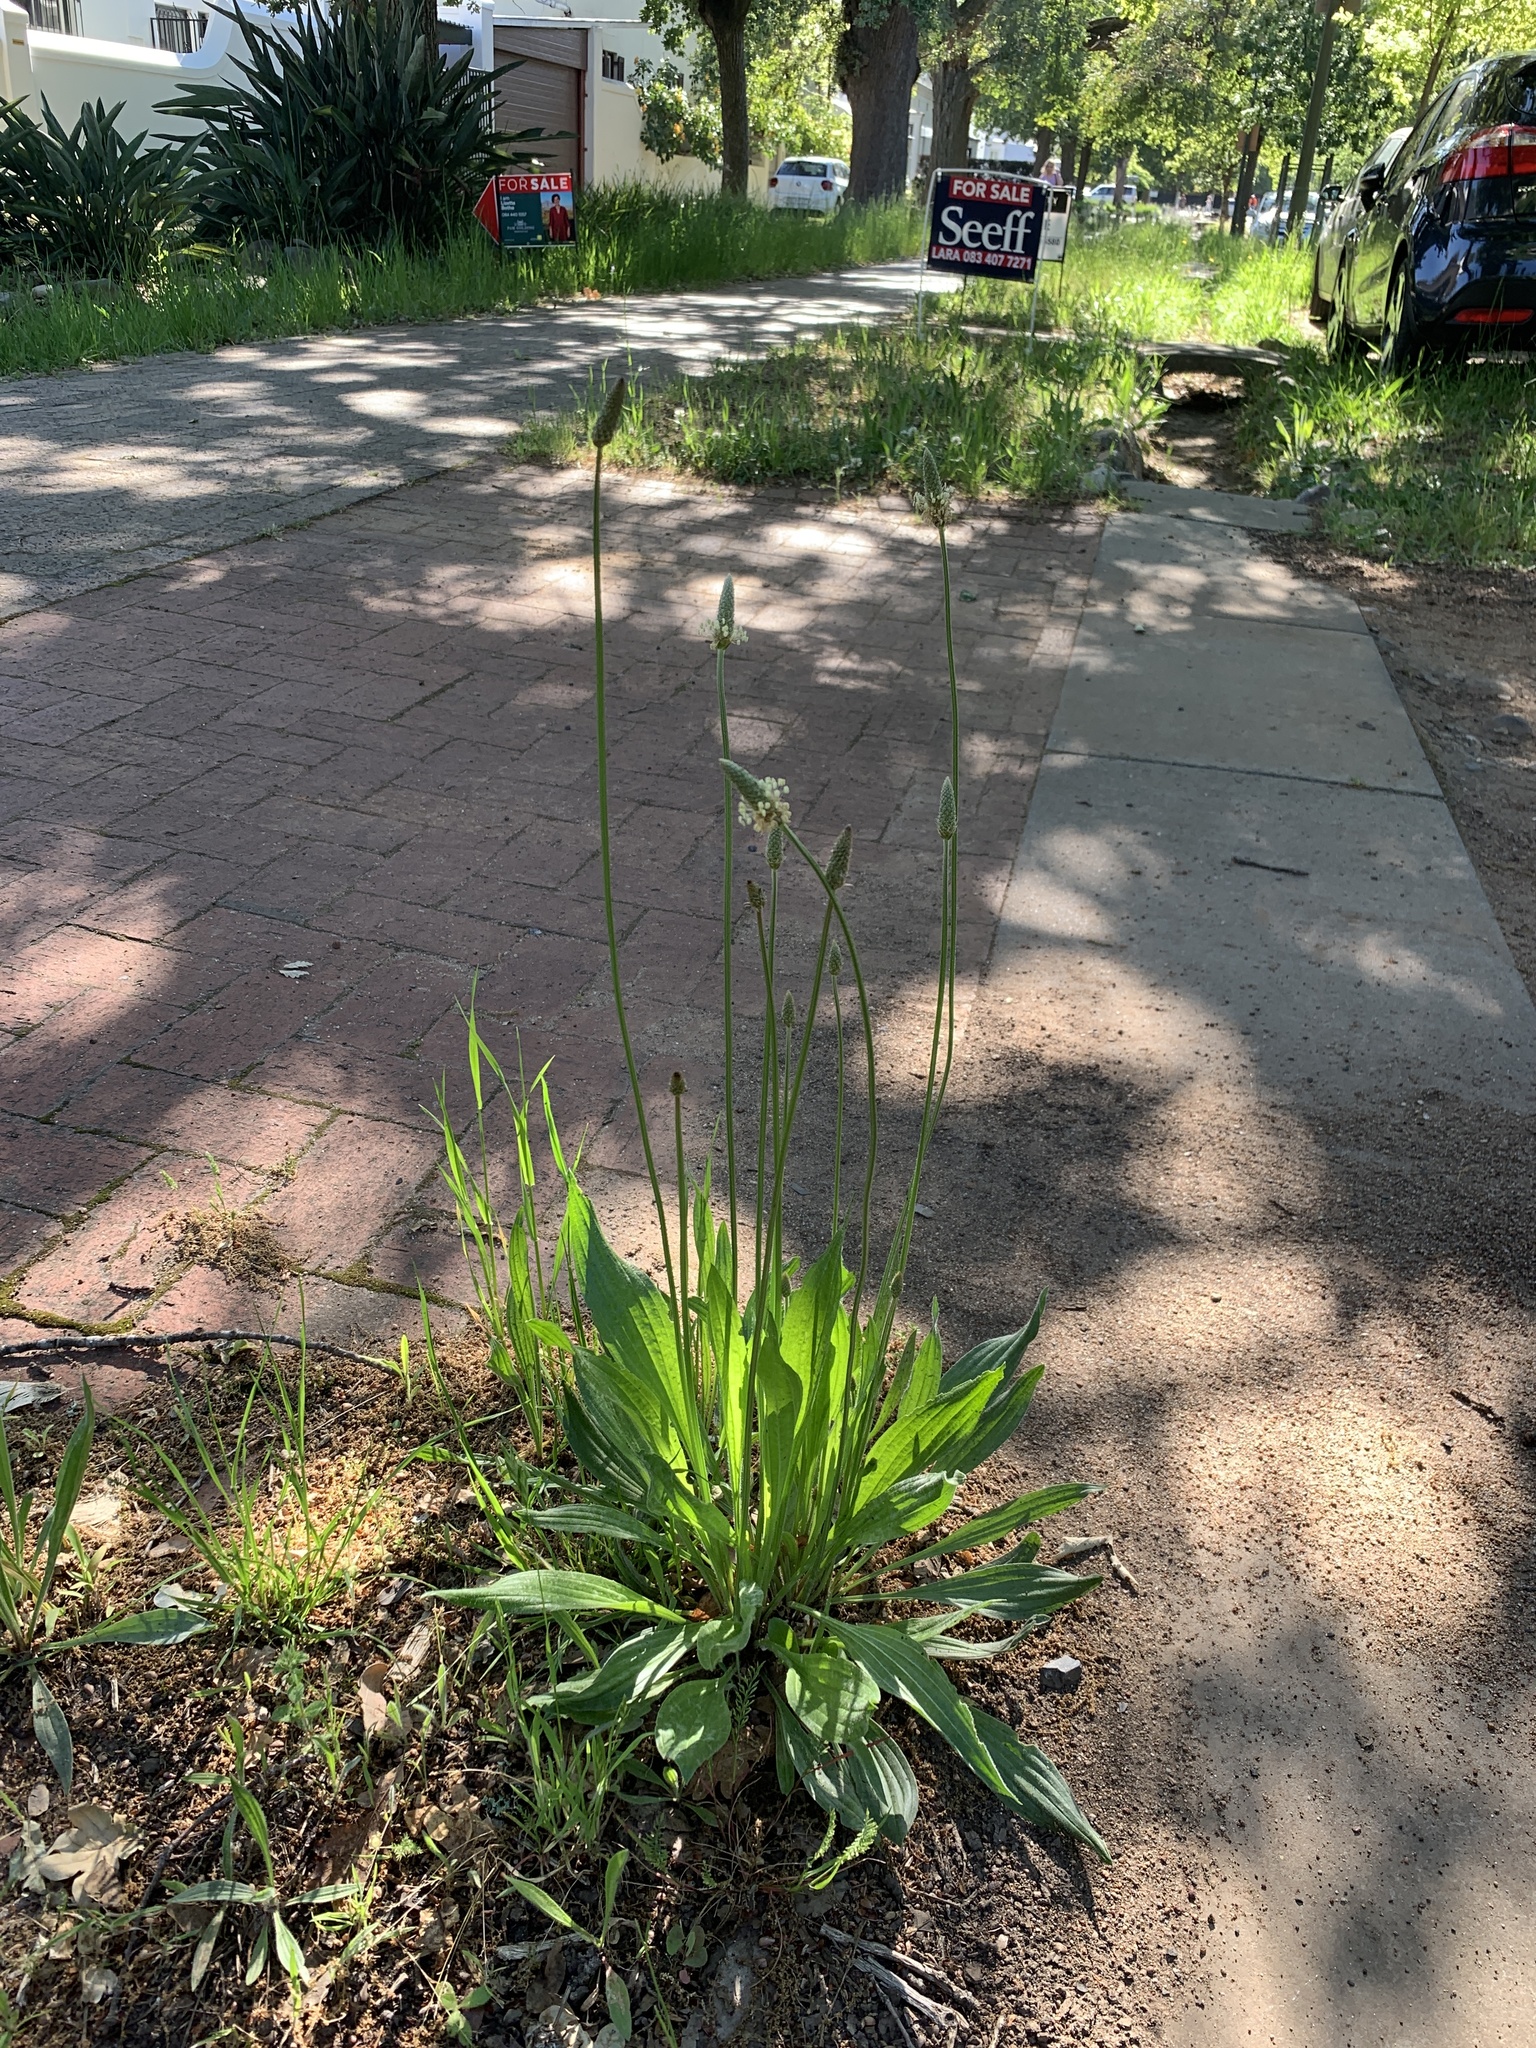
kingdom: Plantae
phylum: Tracheophyta
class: Magnoliopsida
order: Lamiales
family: Plantaginaceae
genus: Plantago
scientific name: Plantago lanceolata
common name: Ribwort plantain
